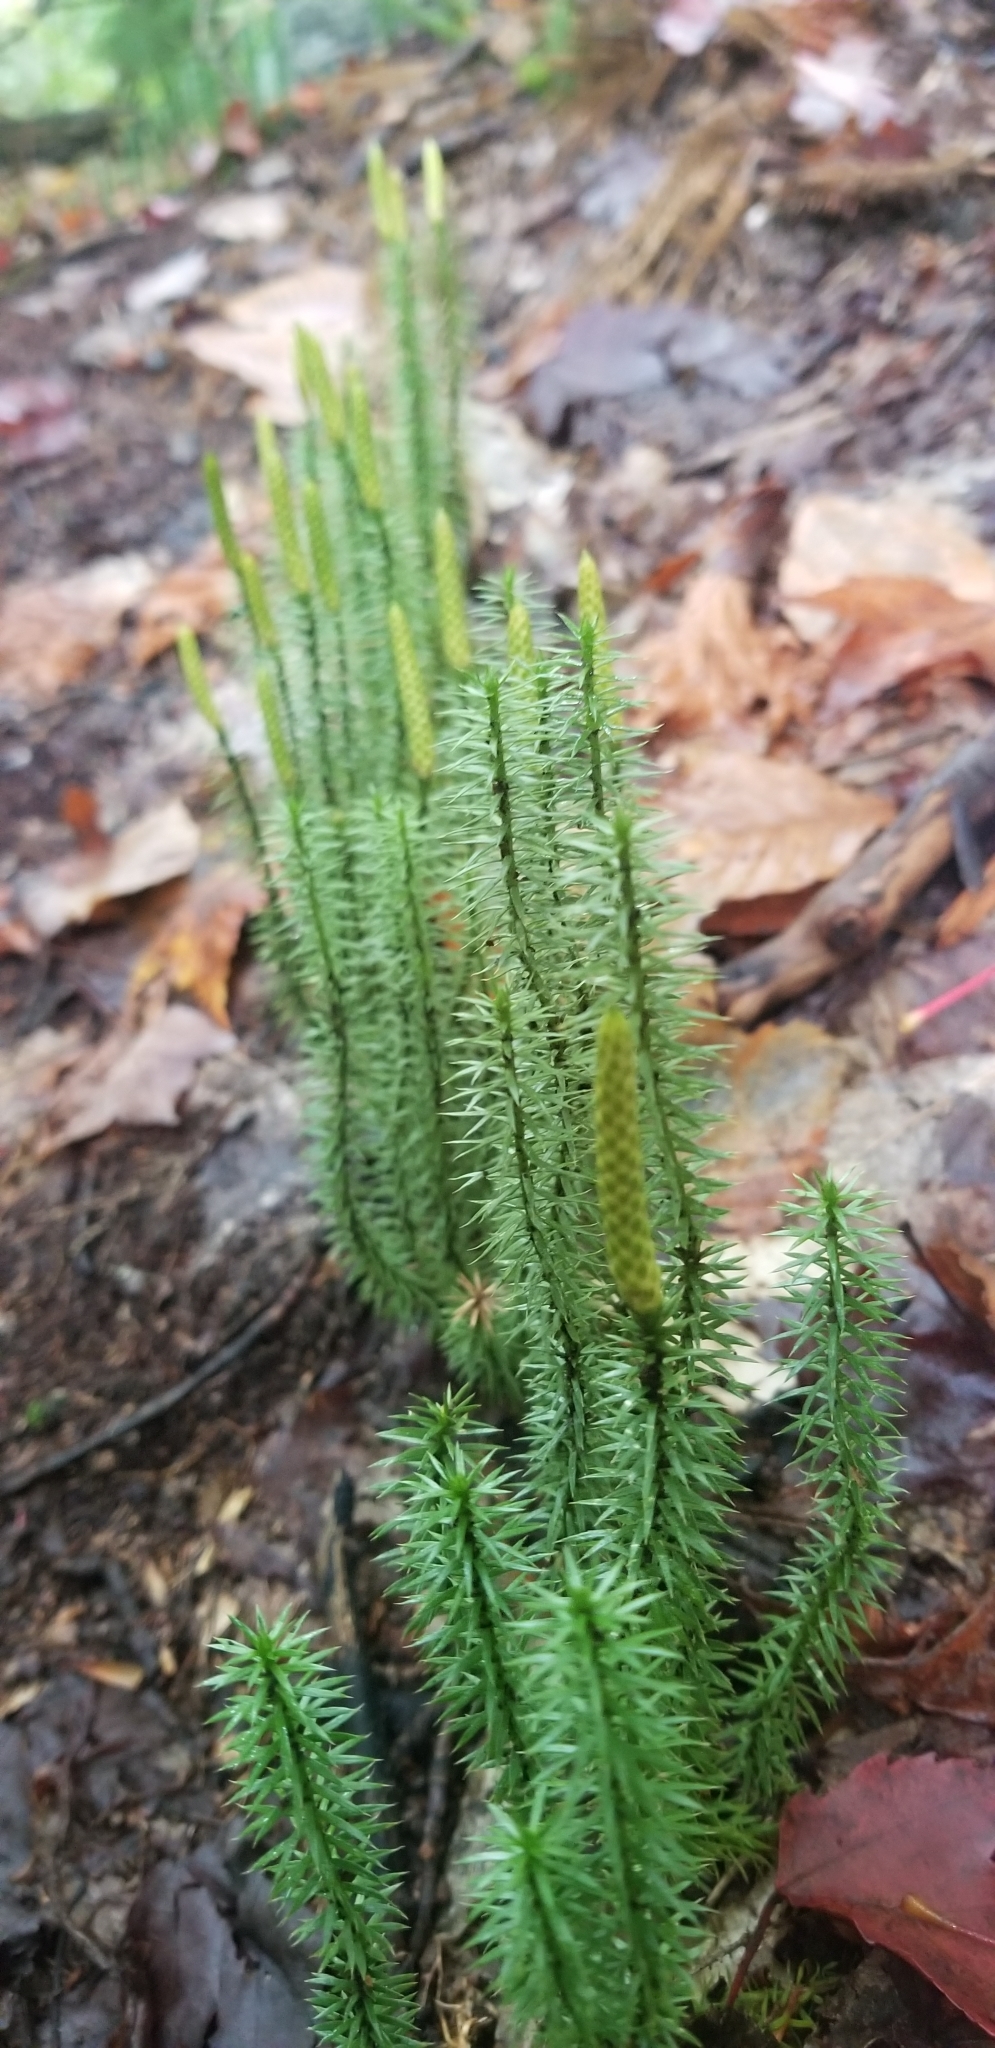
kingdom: Plantae
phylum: Tracheophyta
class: Lycopodiopsida
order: Lycopodiales
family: Lycopodiaceae
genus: Spinulum
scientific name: Spinulum annotinum
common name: Interrupted club-moss
